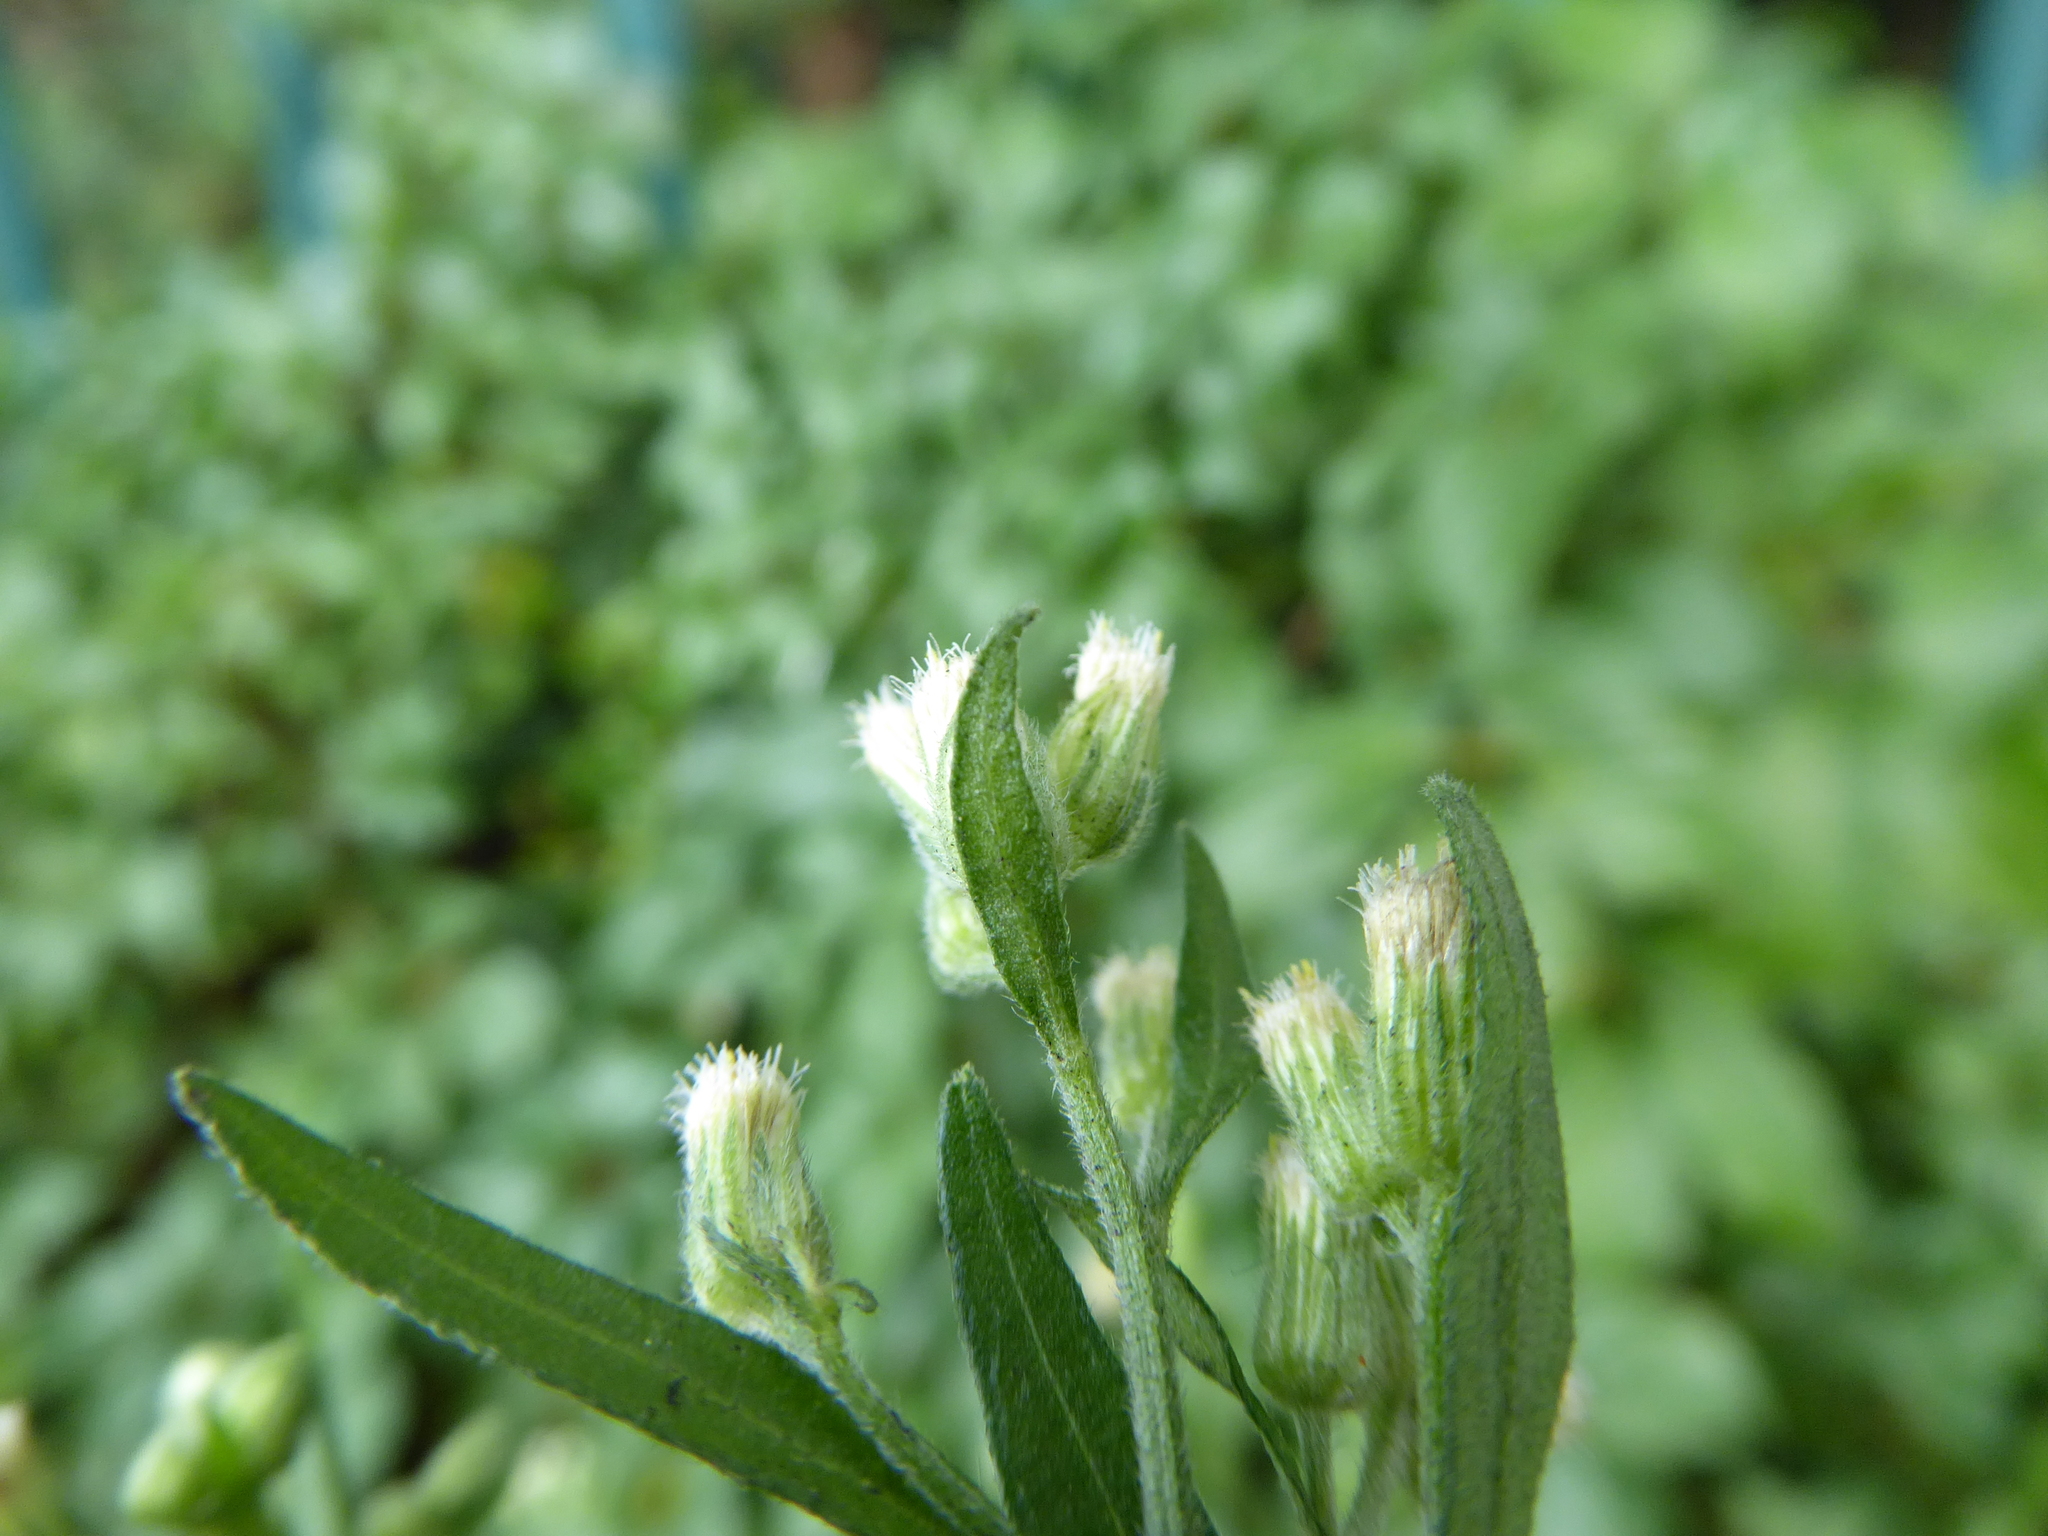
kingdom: Plantae
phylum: Tracheophyta
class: Magnoliopsida
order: Asterales
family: Asteraceae
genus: Erigeron
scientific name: Erigeron sumatrensis
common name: Daisy
